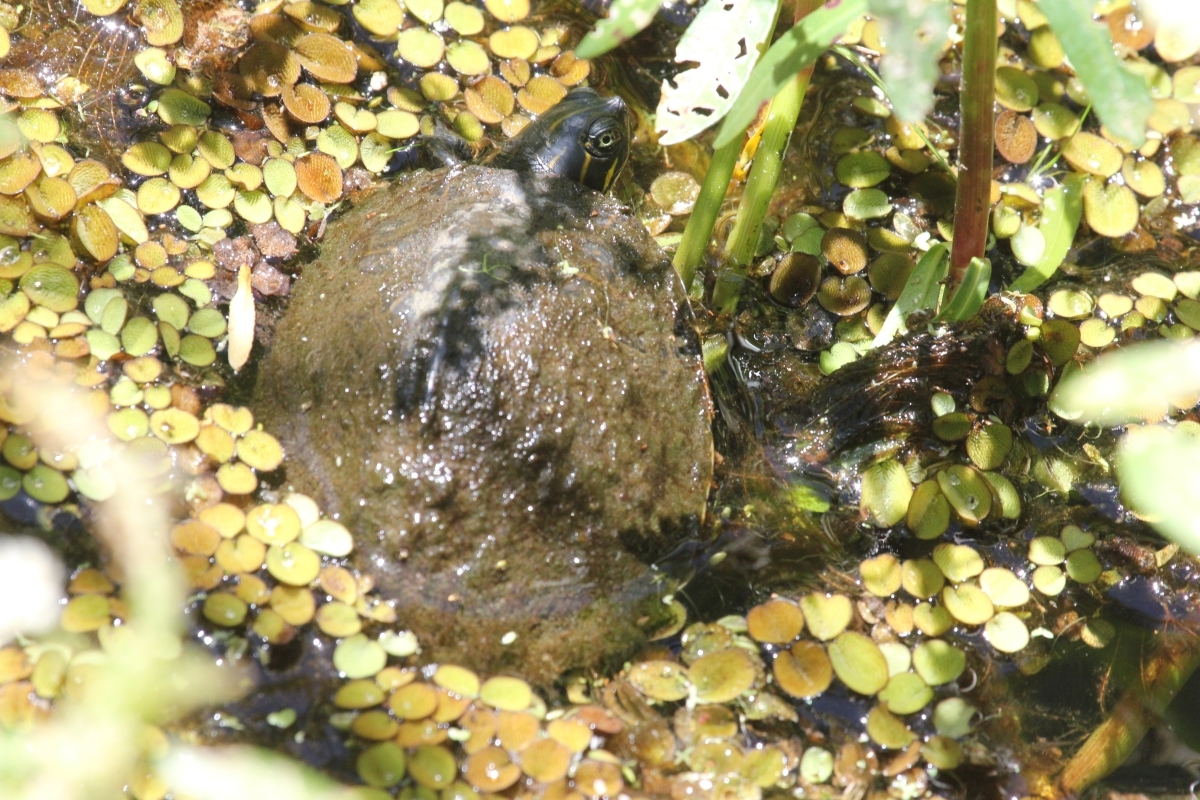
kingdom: Animalia
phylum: Chordata
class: Testudines
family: Emydidae
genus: Pseudemys
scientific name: Pseudemys concinna
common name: Eastern river cooter
